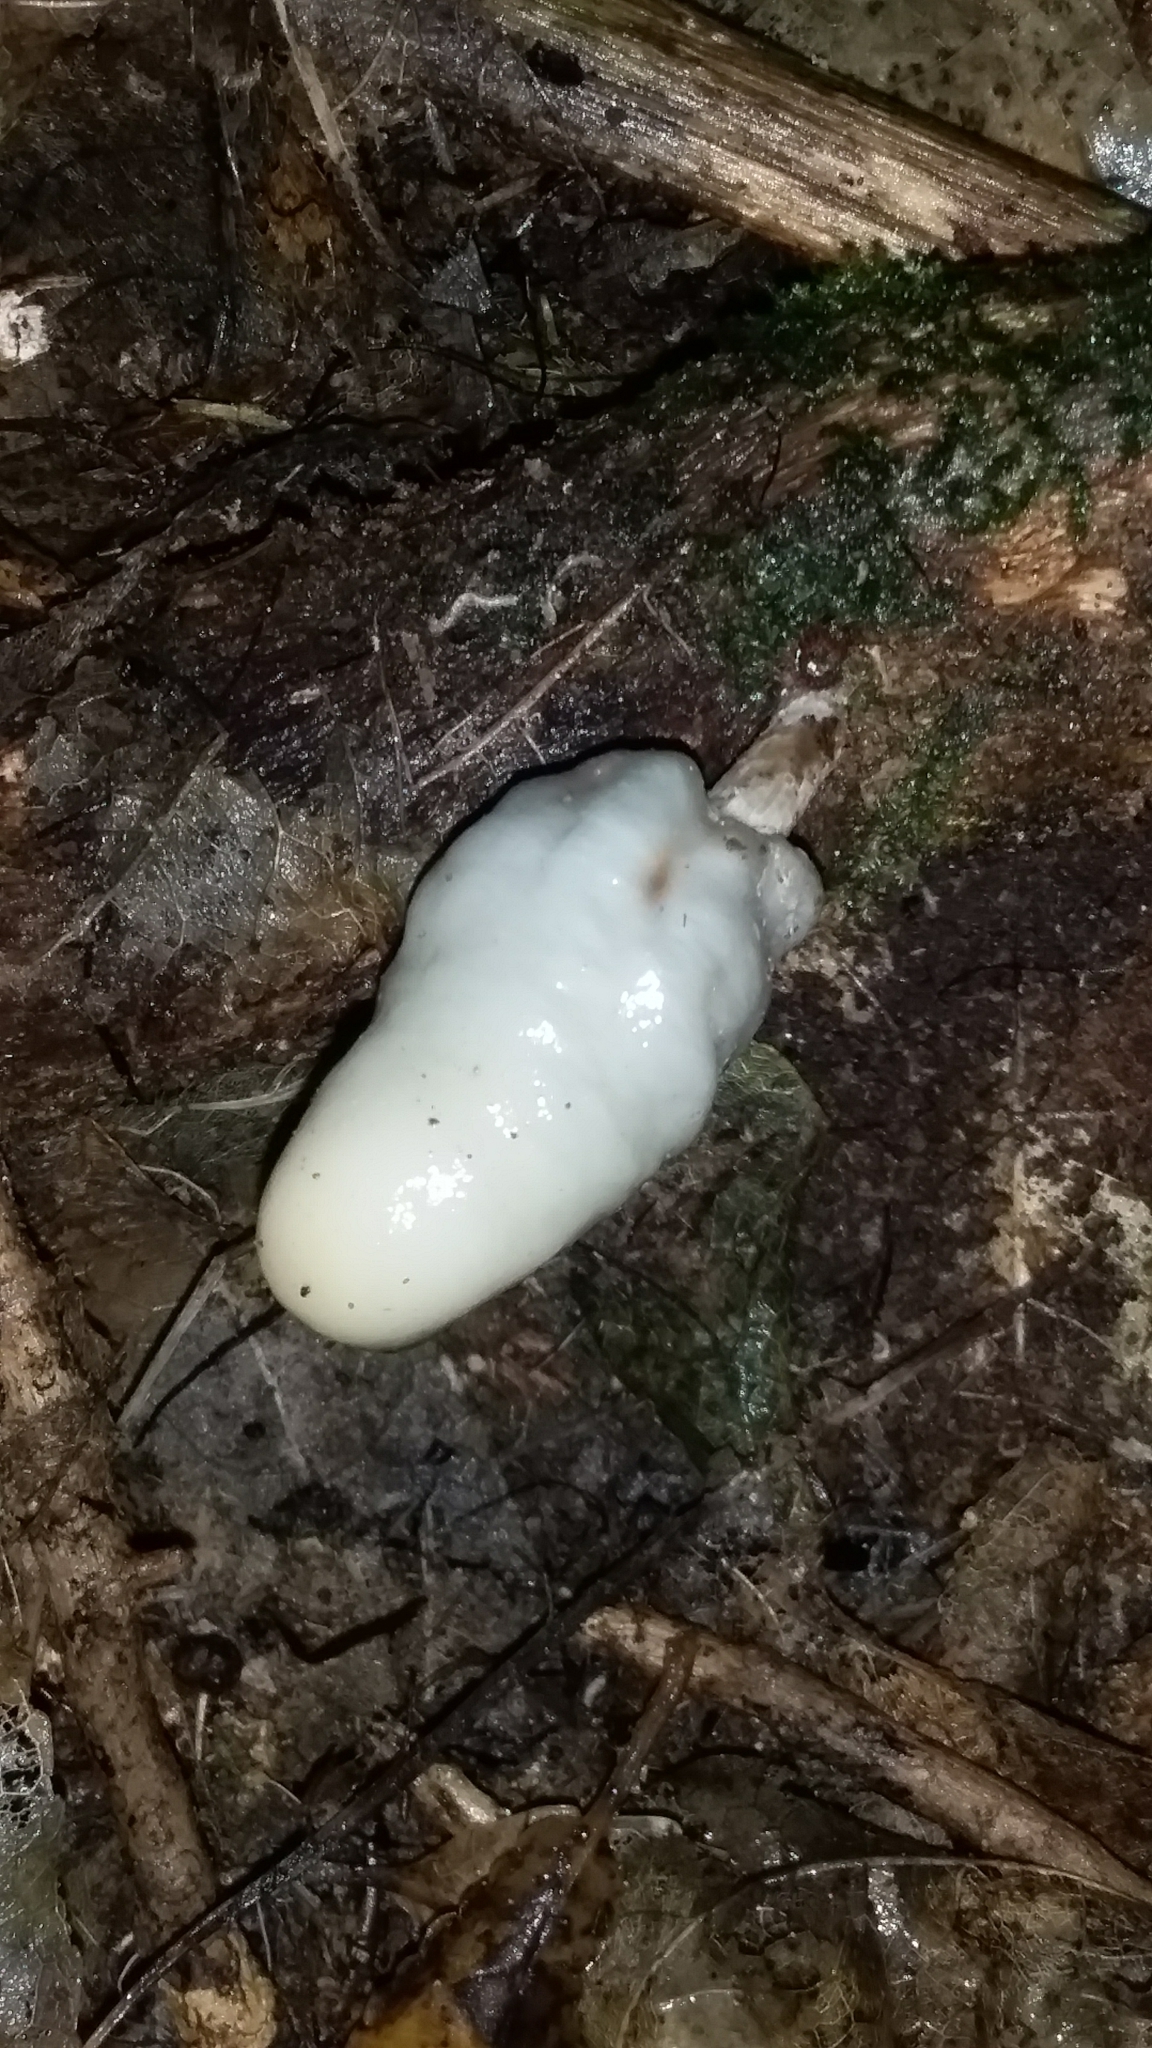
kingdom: Fungi
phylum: Basidiomycota
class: Agaricomycetes
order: Agaricales
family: Hymenogastraceae
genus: Psilocybe
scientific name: Psilocybe weraroa
